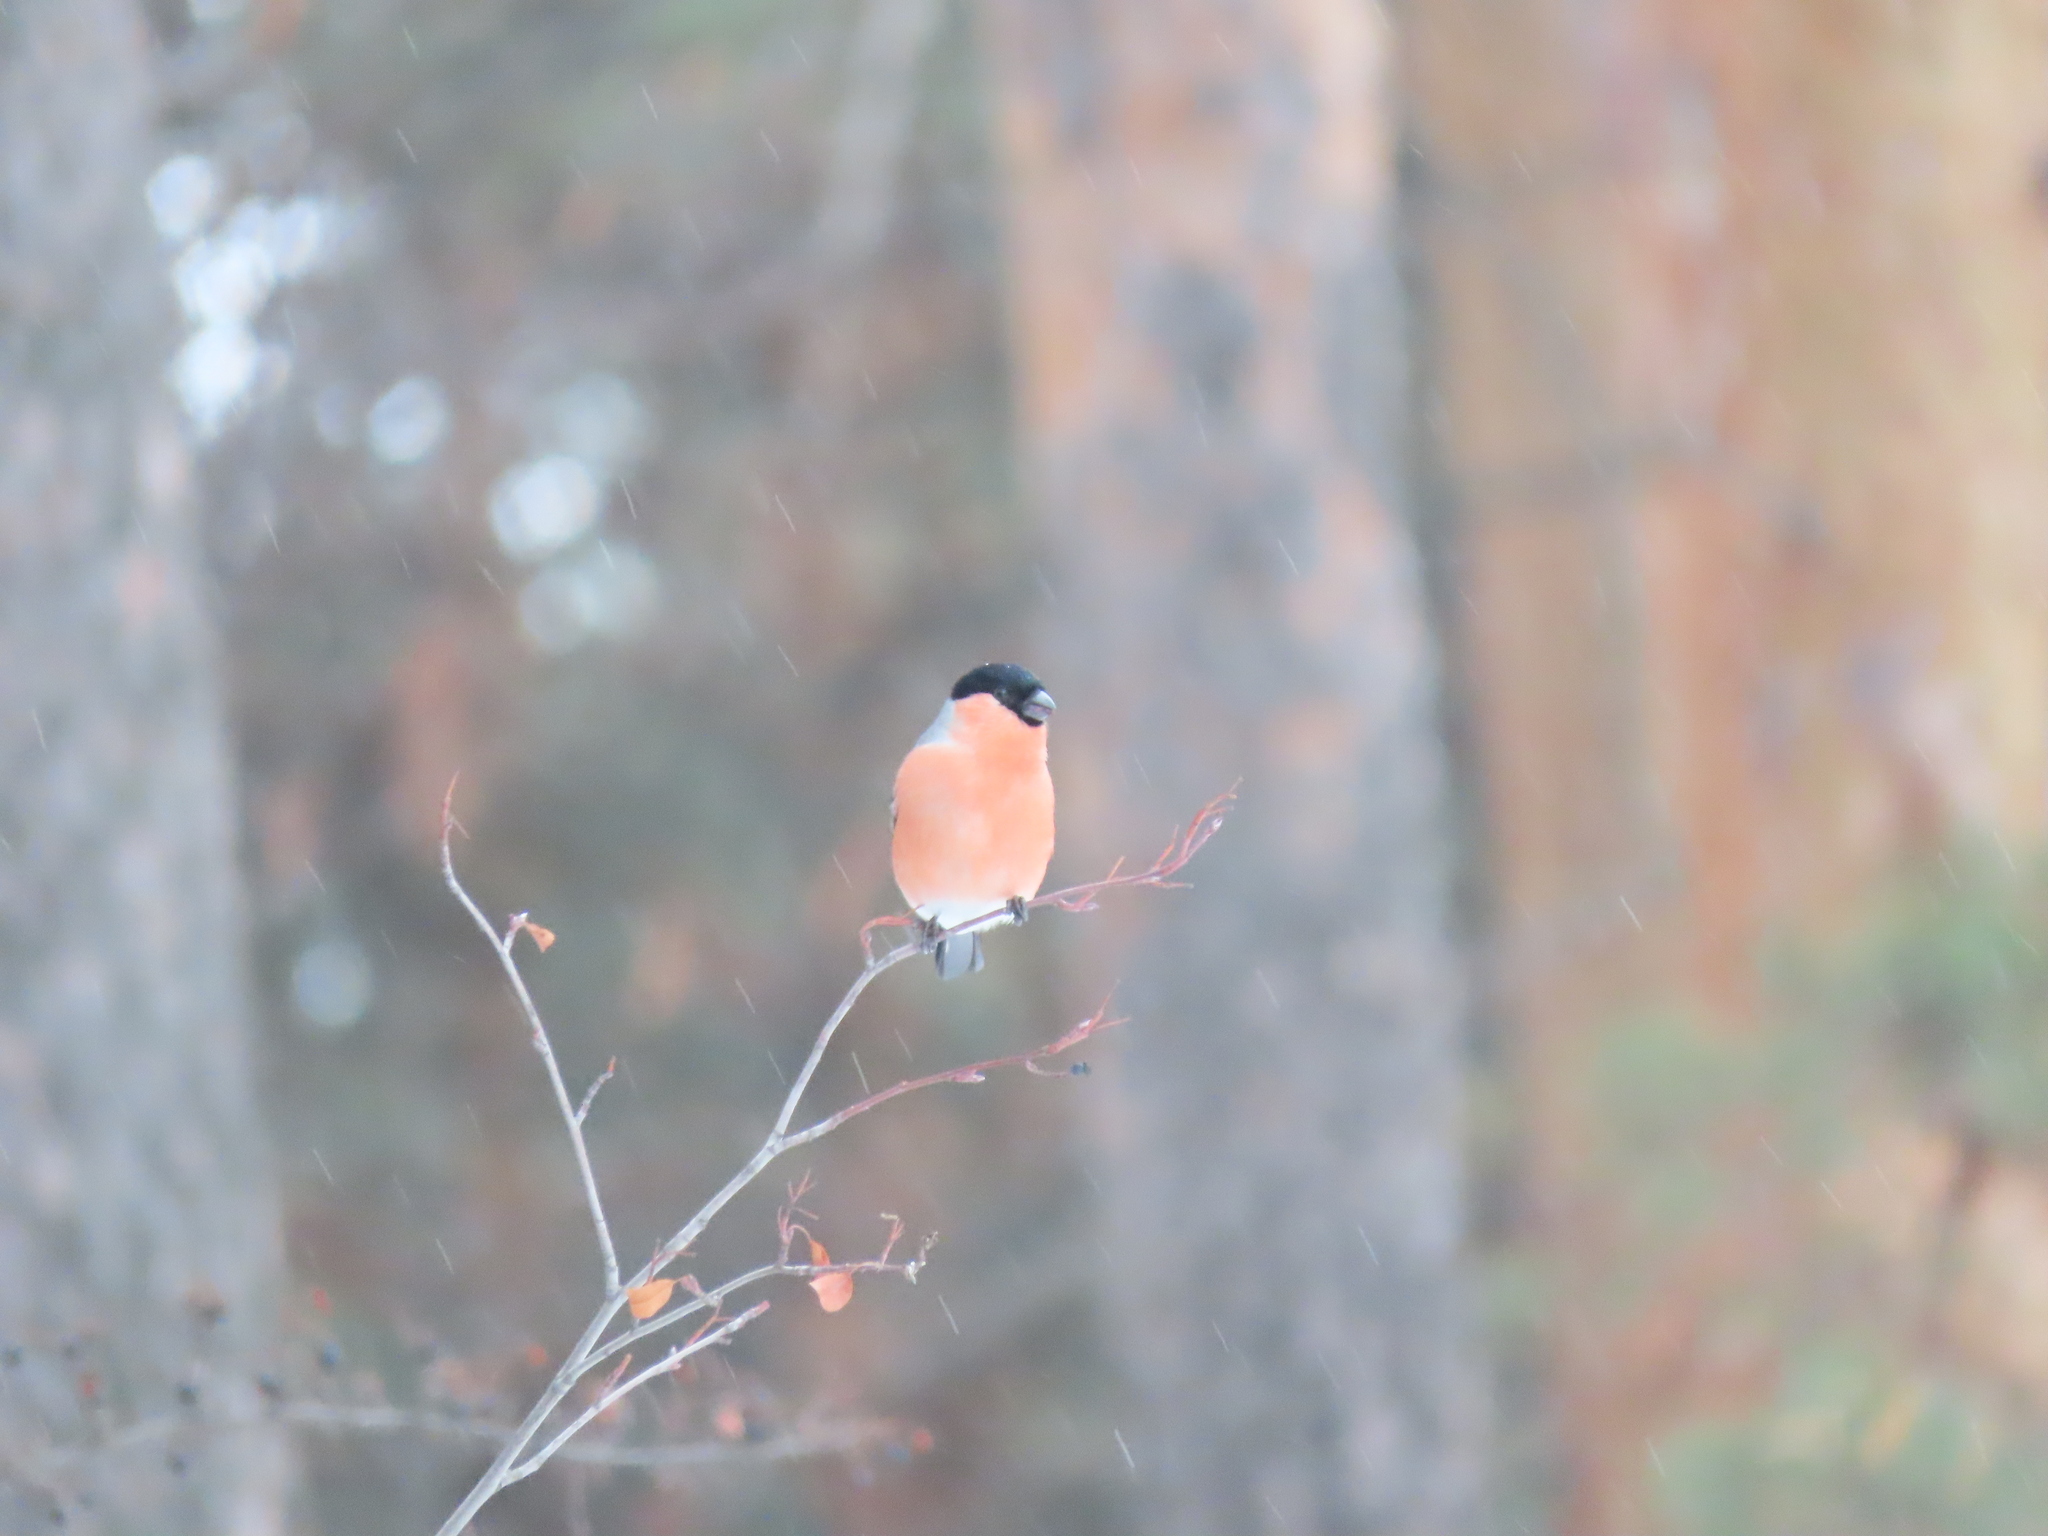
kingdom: Animalia
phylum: Chordata
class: Aves
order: Passeriformes
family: Fringillidae
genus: Pyrrhula
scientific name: Pyrrhula pyrrhula
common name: Eurasian bullfinch
